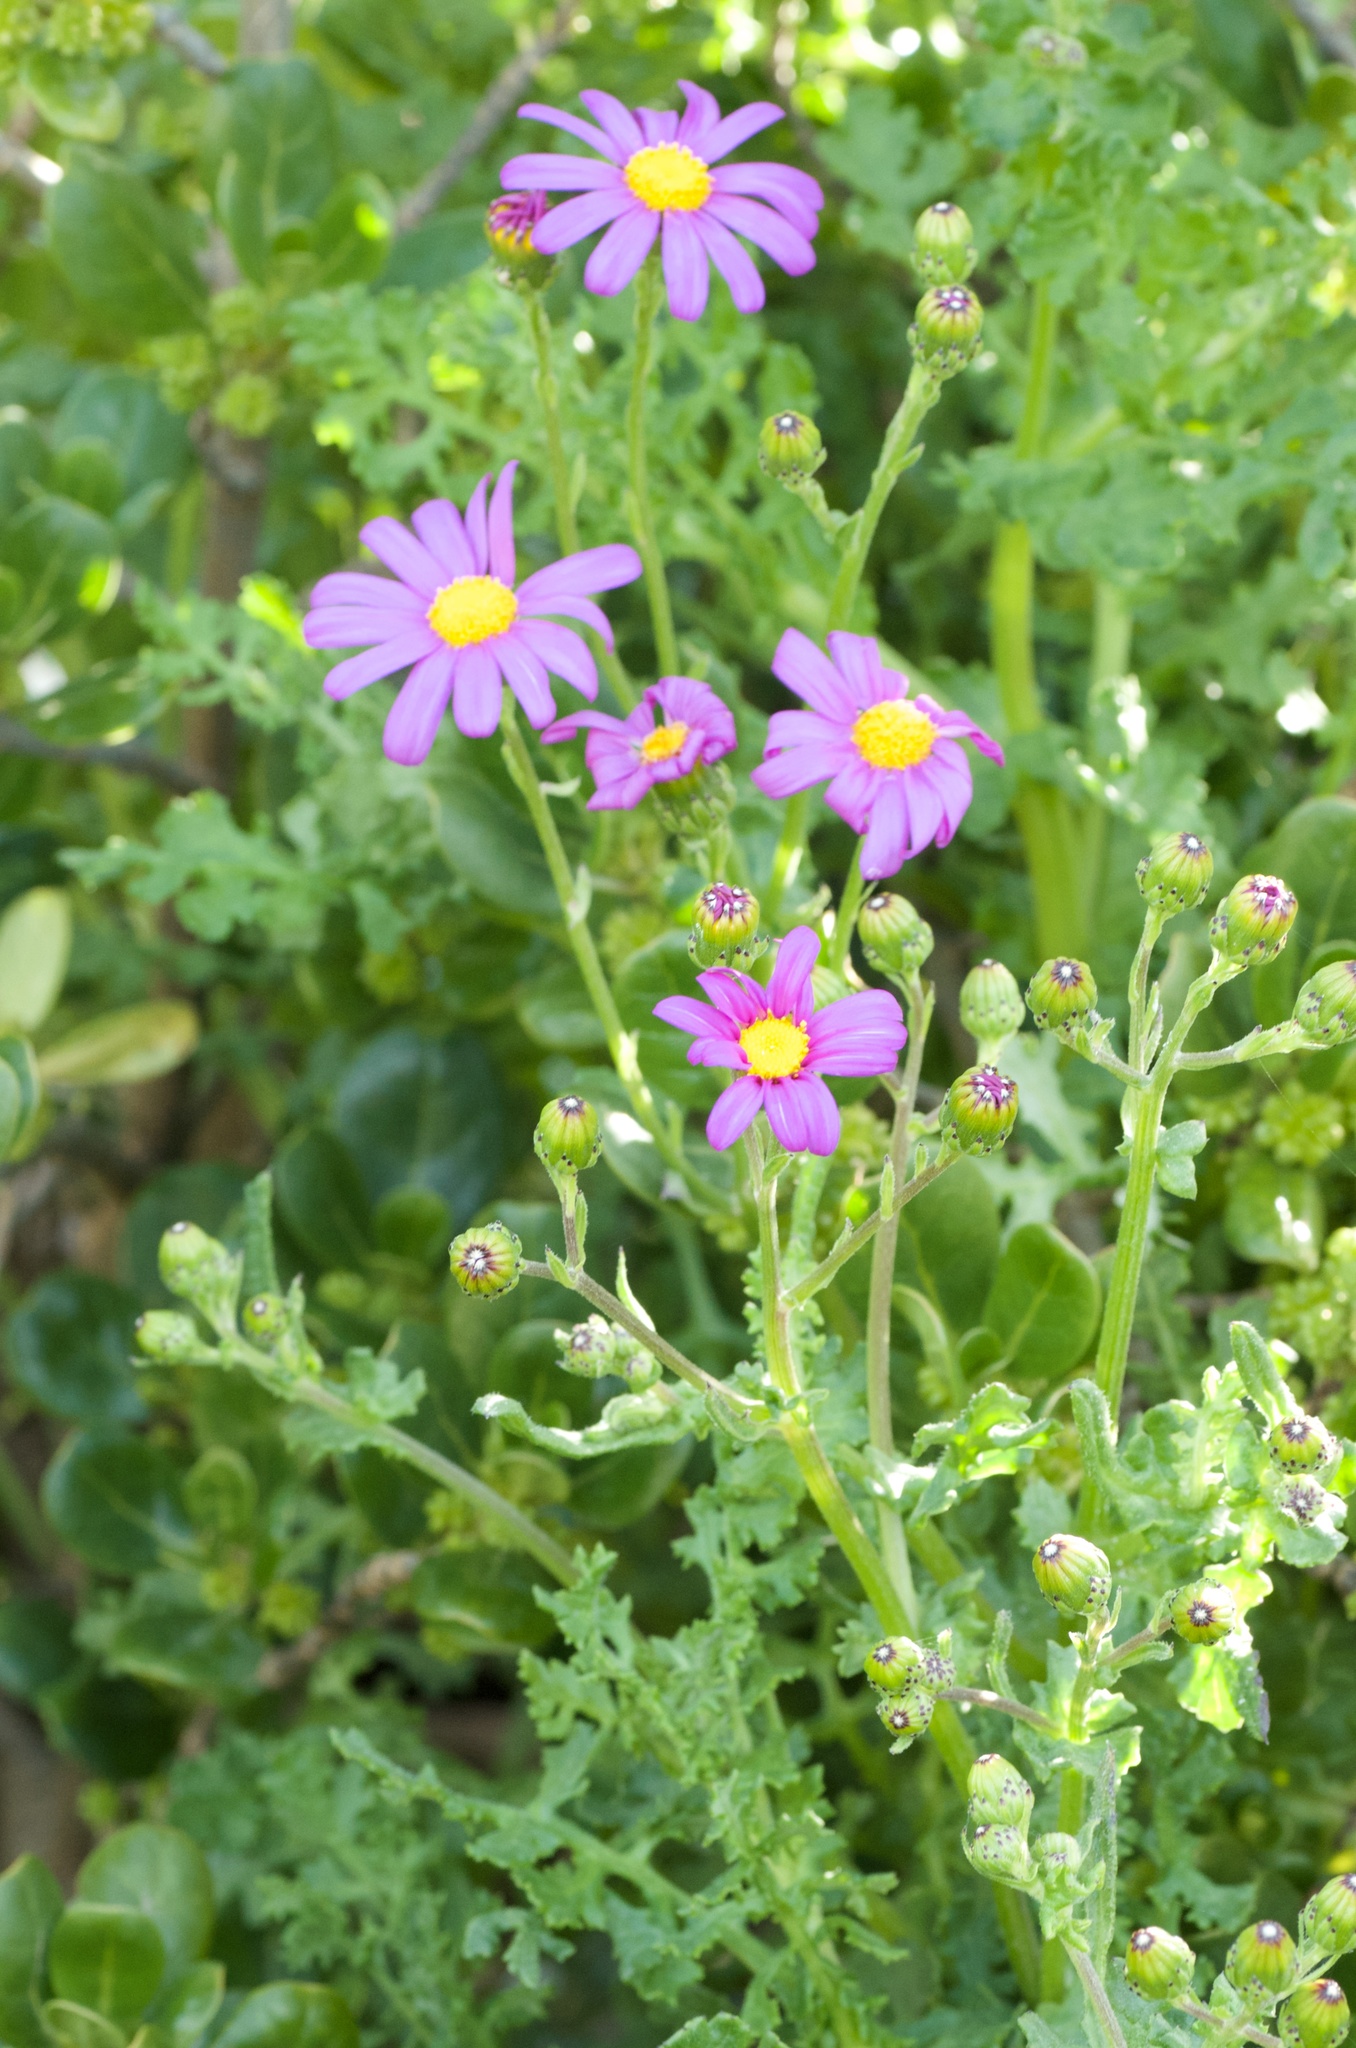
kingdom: Plantae
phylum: Tracheophyta
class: Magnoliopsida
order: Asterales
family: Asteraceae
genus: Senecio
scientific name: Senecio elegans
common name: Purple groundsel
